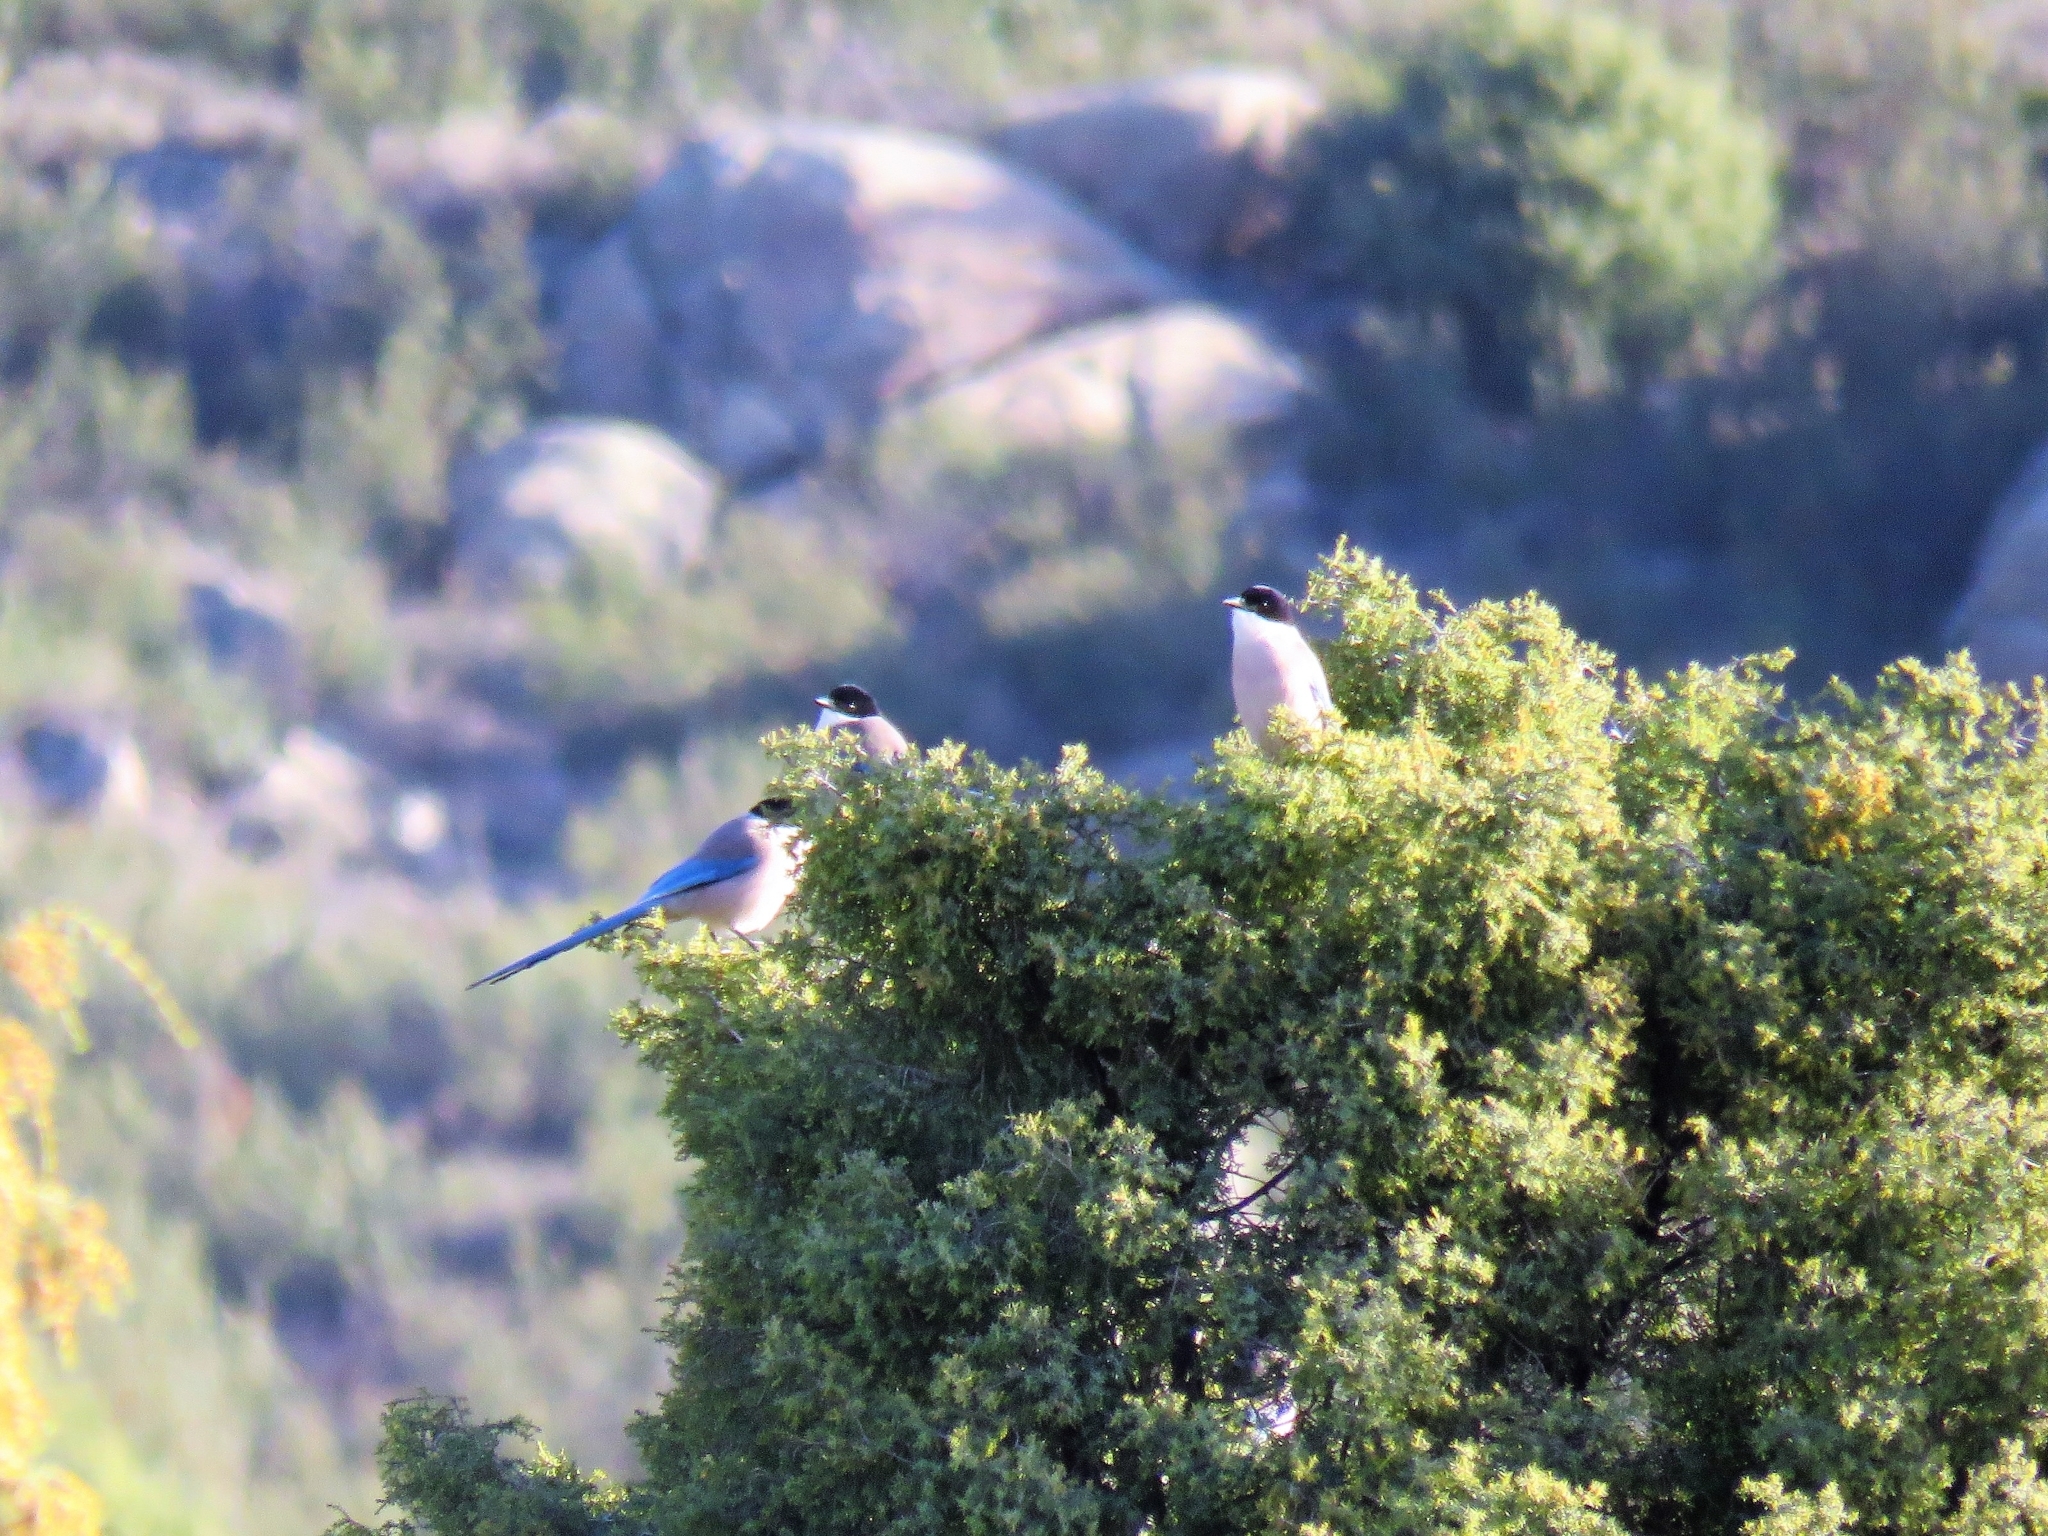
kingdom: Animalia
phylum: Chordata
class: Aves
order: Passeriformes
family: Corvidae
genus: Cyanopica
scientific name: Cyanopica cooki
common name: Iberian magpie
